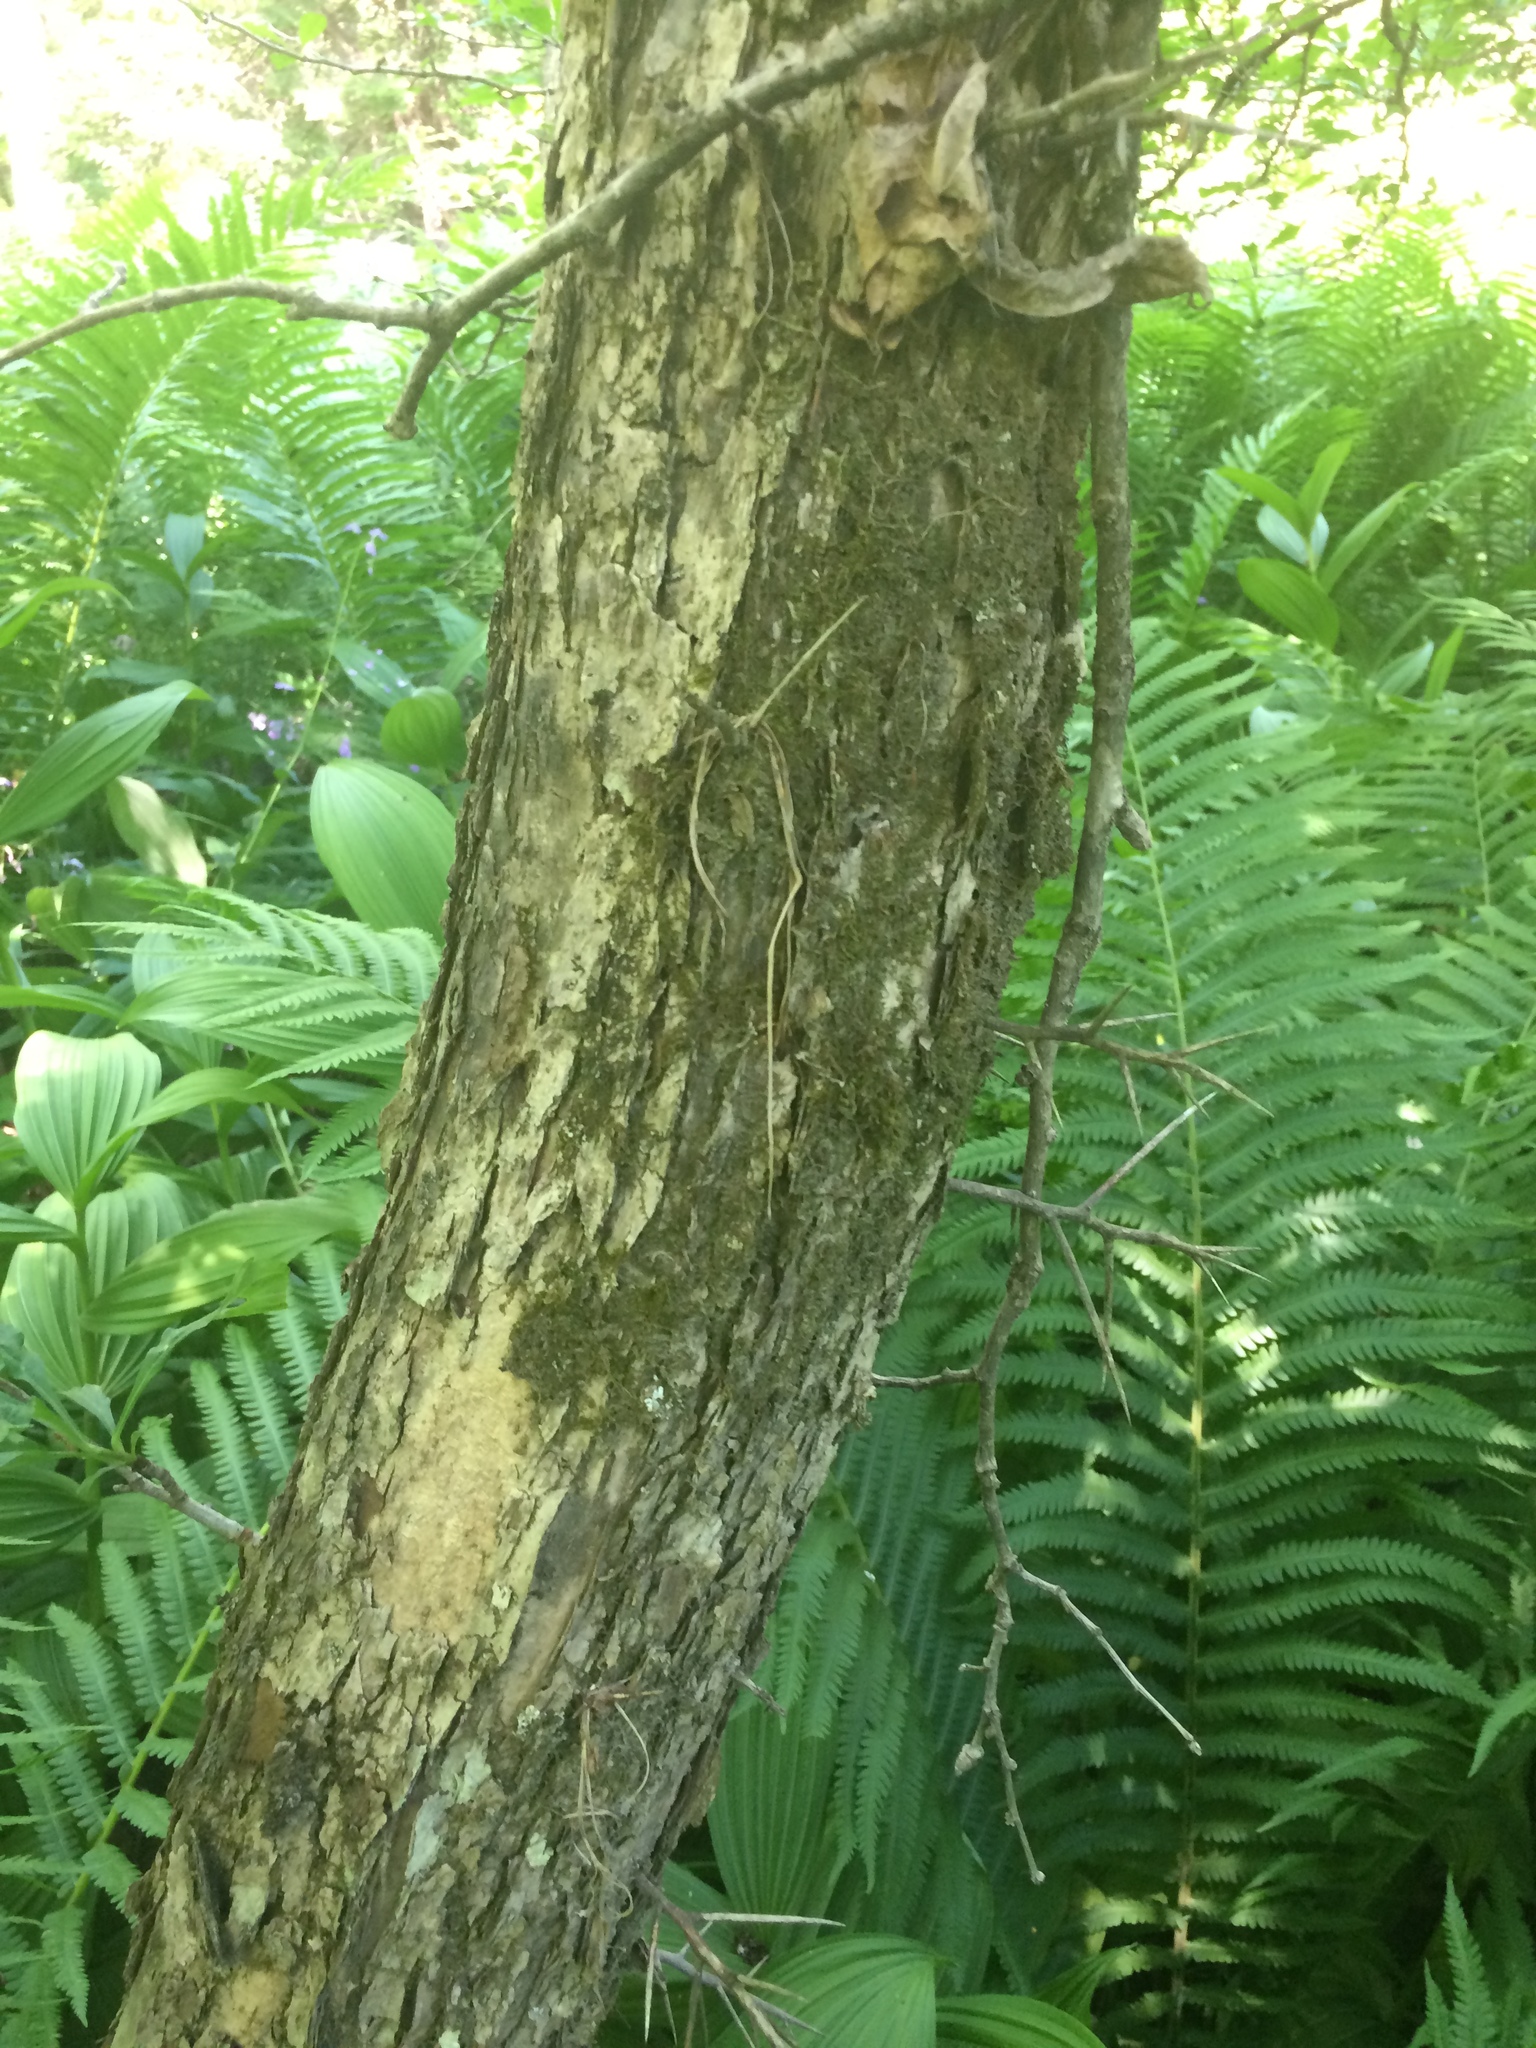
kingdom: Plantae
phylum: Tracheophyta
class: Magnoliopsida
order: Rosales
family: Rosaceae
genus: Crataegus
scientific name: Crataegus punctata
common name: Dotted hawthorn
